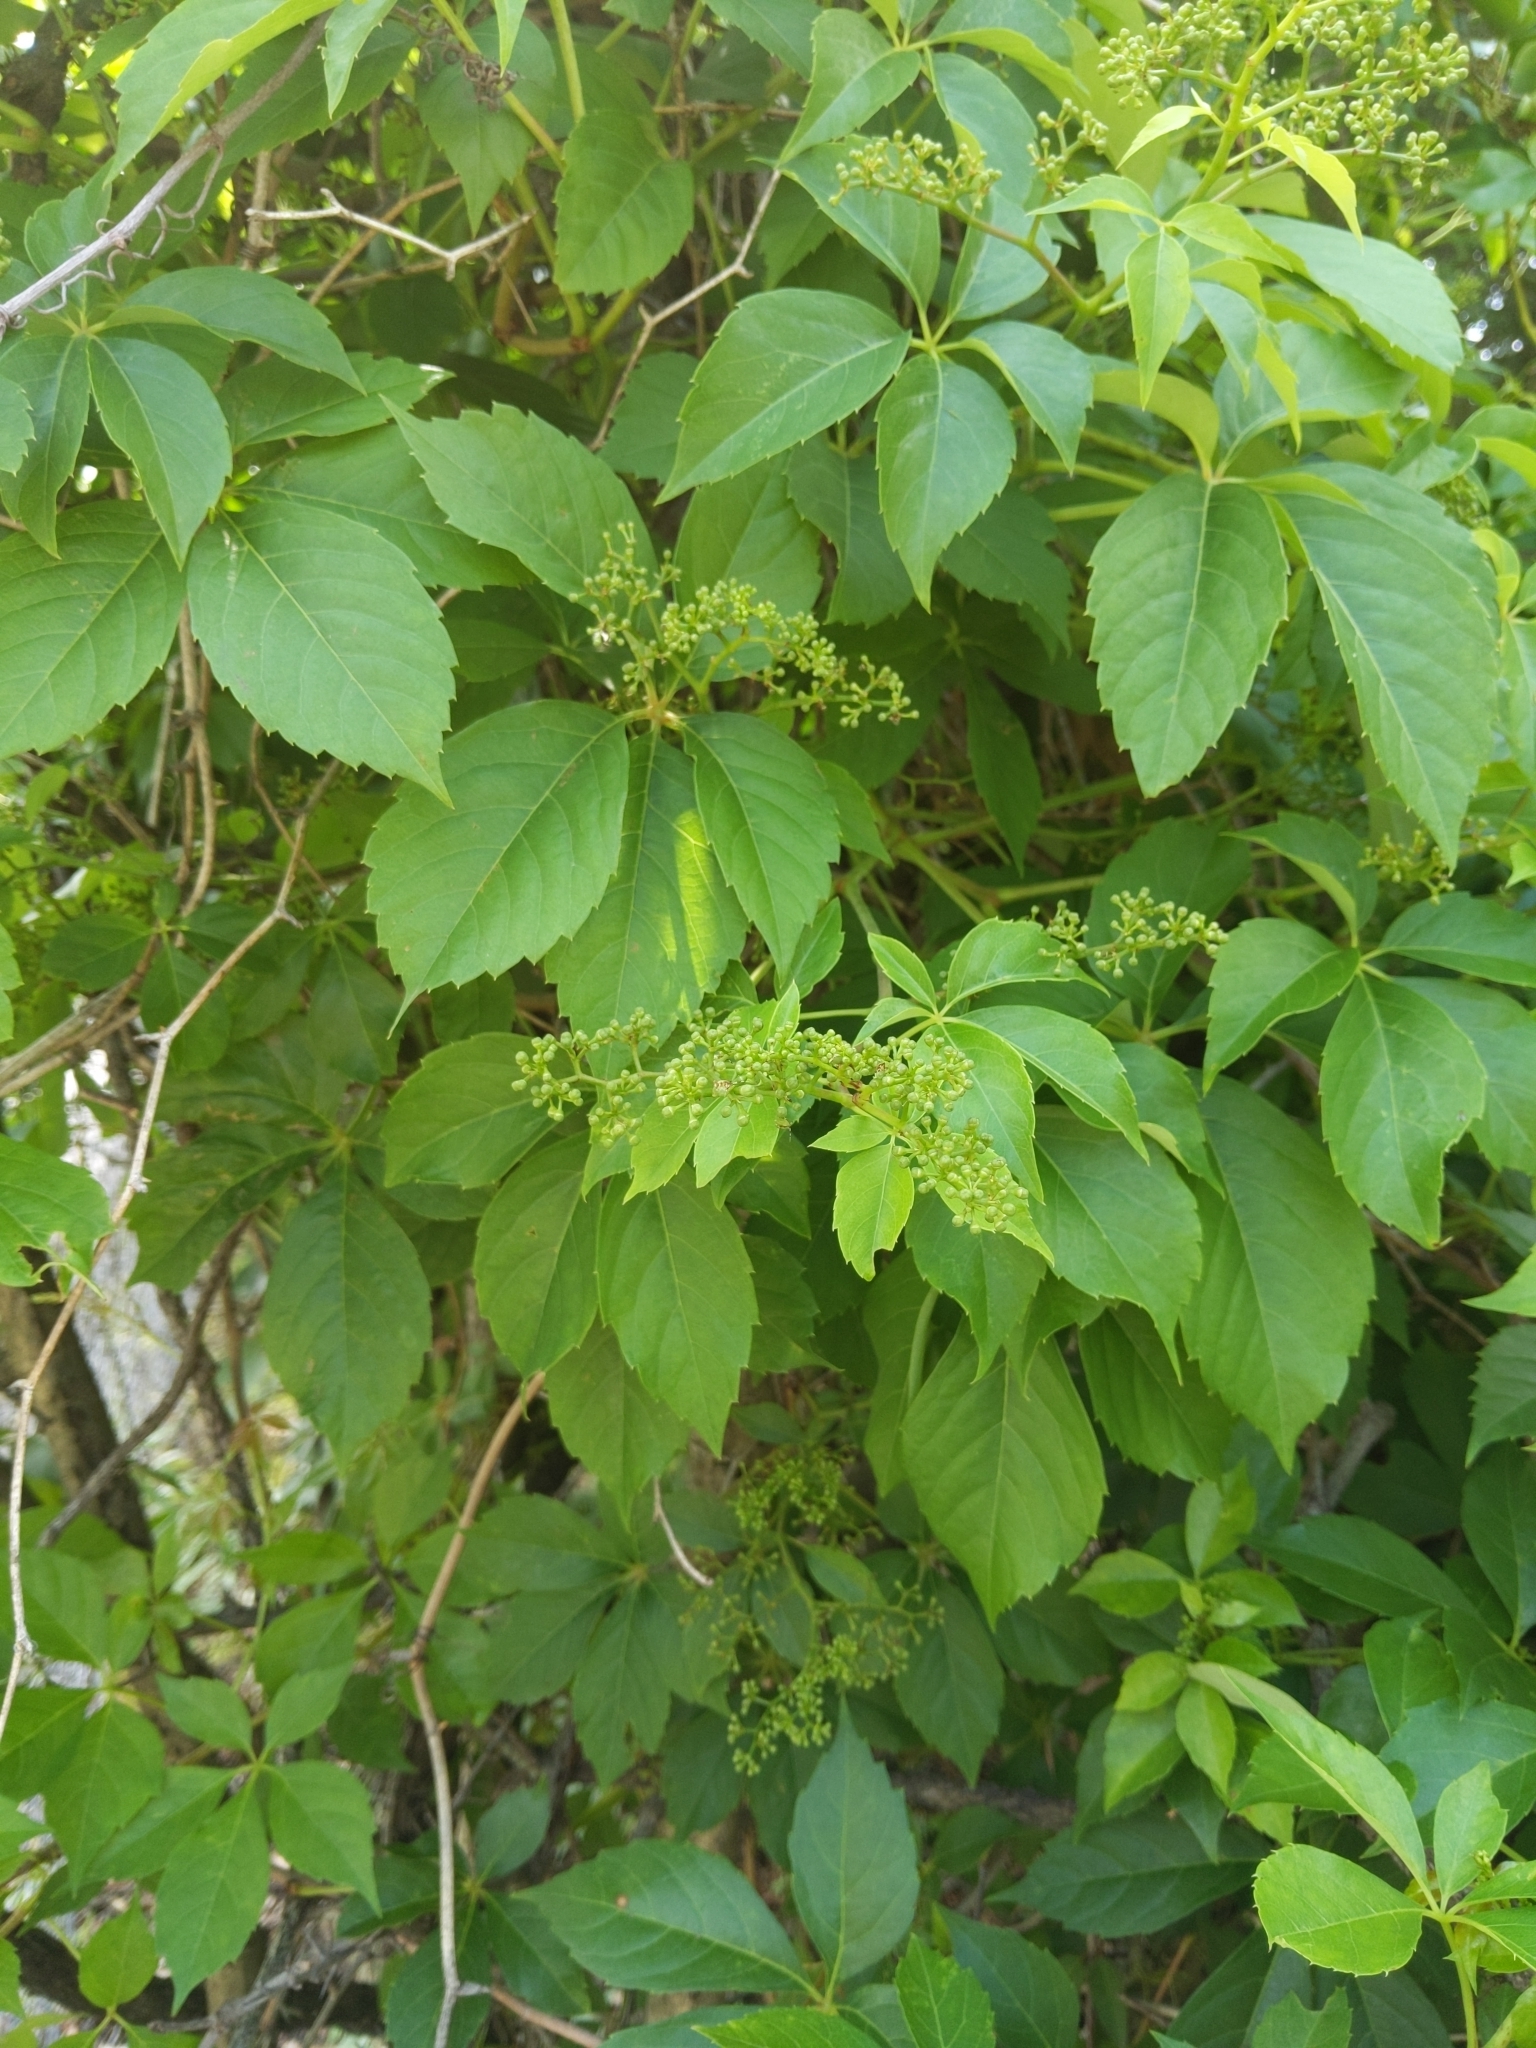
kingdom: Plantae
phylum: Tracheophyta
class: Magnoliopsida
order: Vitales
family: Vitaceae
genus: Parthenocissus
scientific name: Parthenocissus quinquefolia
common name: Virginia-creeper
